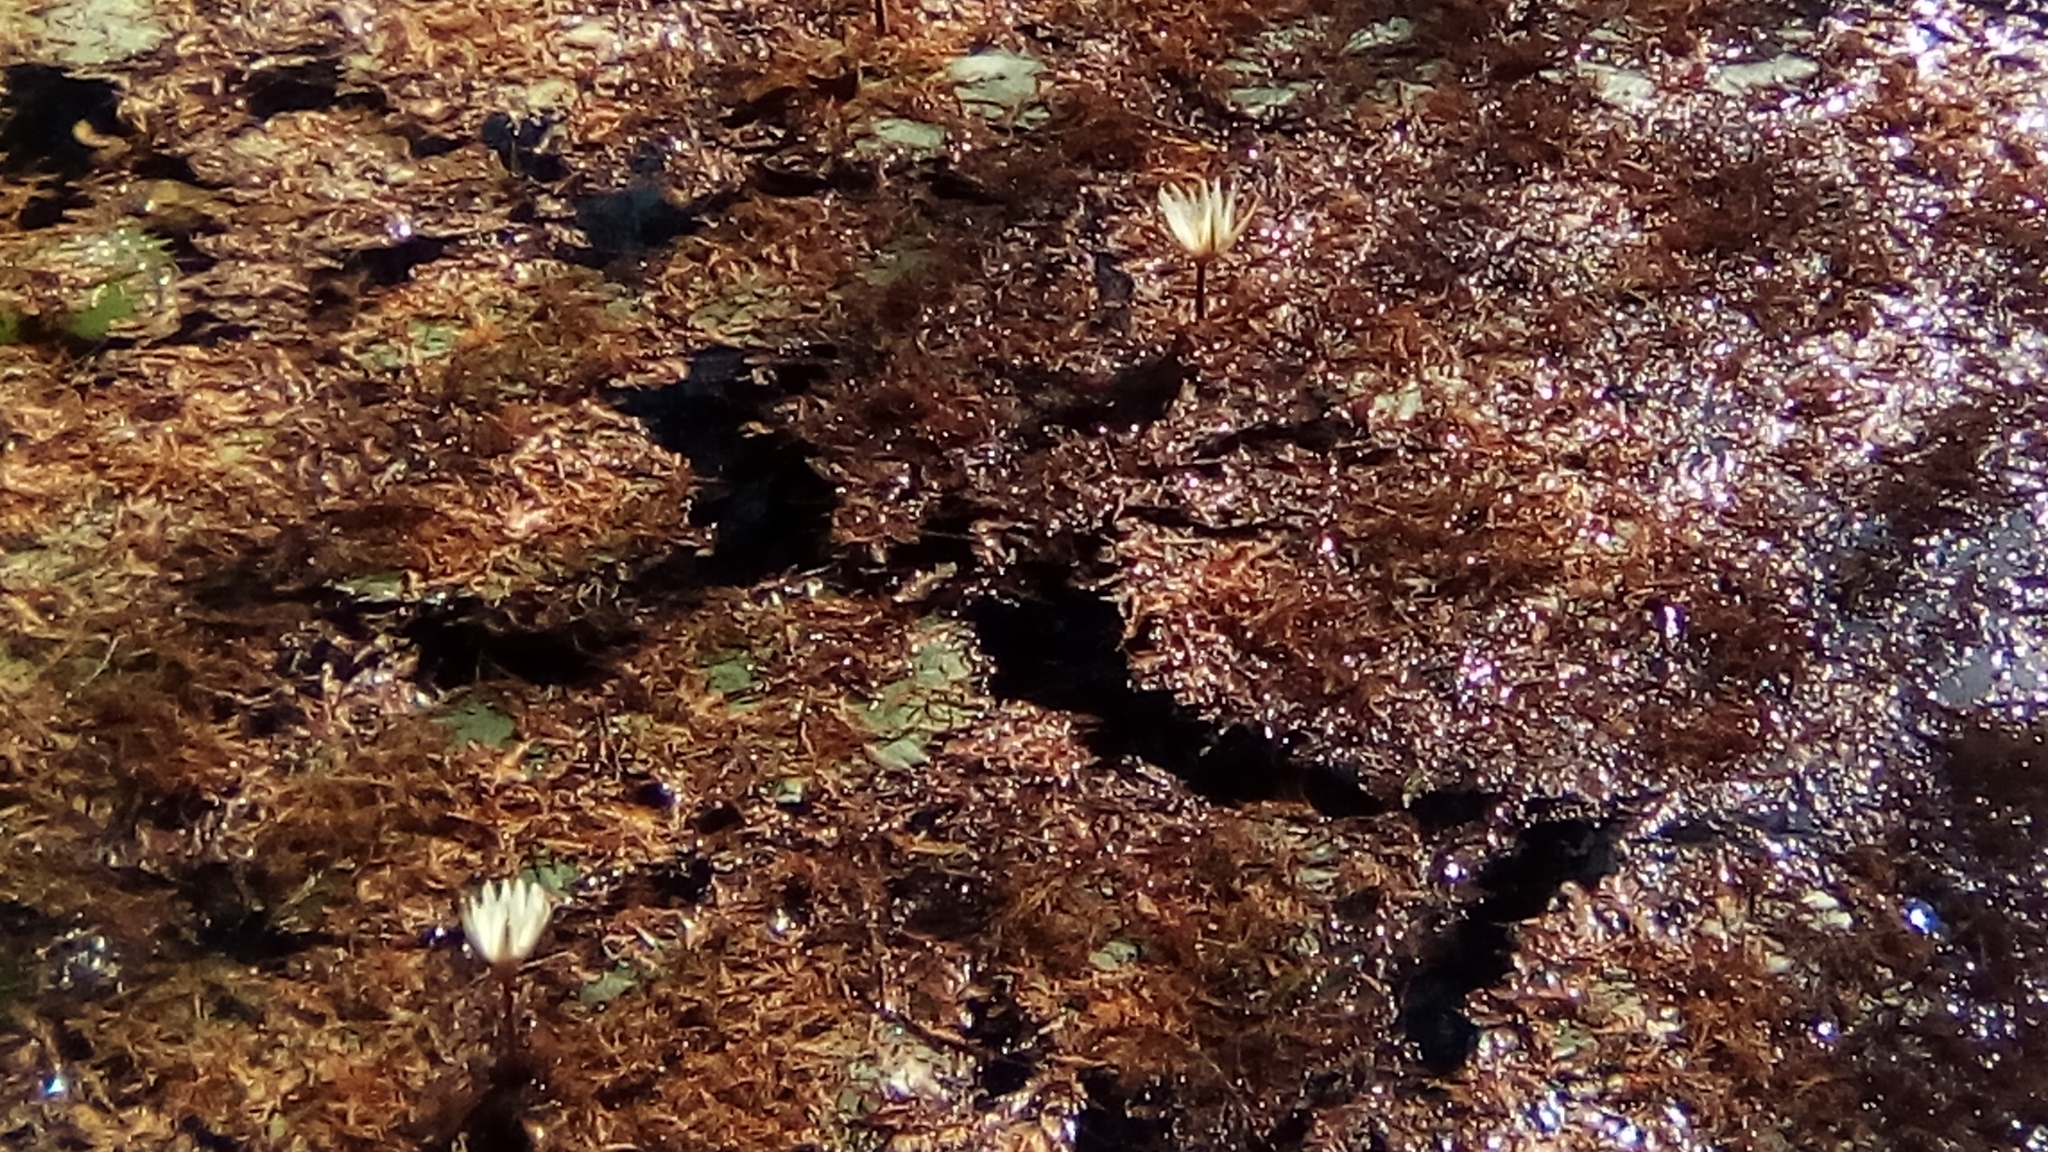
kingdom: Plantae
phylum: Tracheophyta
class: Magnoliopsida
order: Nymphaeales
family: Nymphaeaceae
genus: Nymphaea
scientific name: Nymphaea ampla
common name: Dotleaf waterlily
